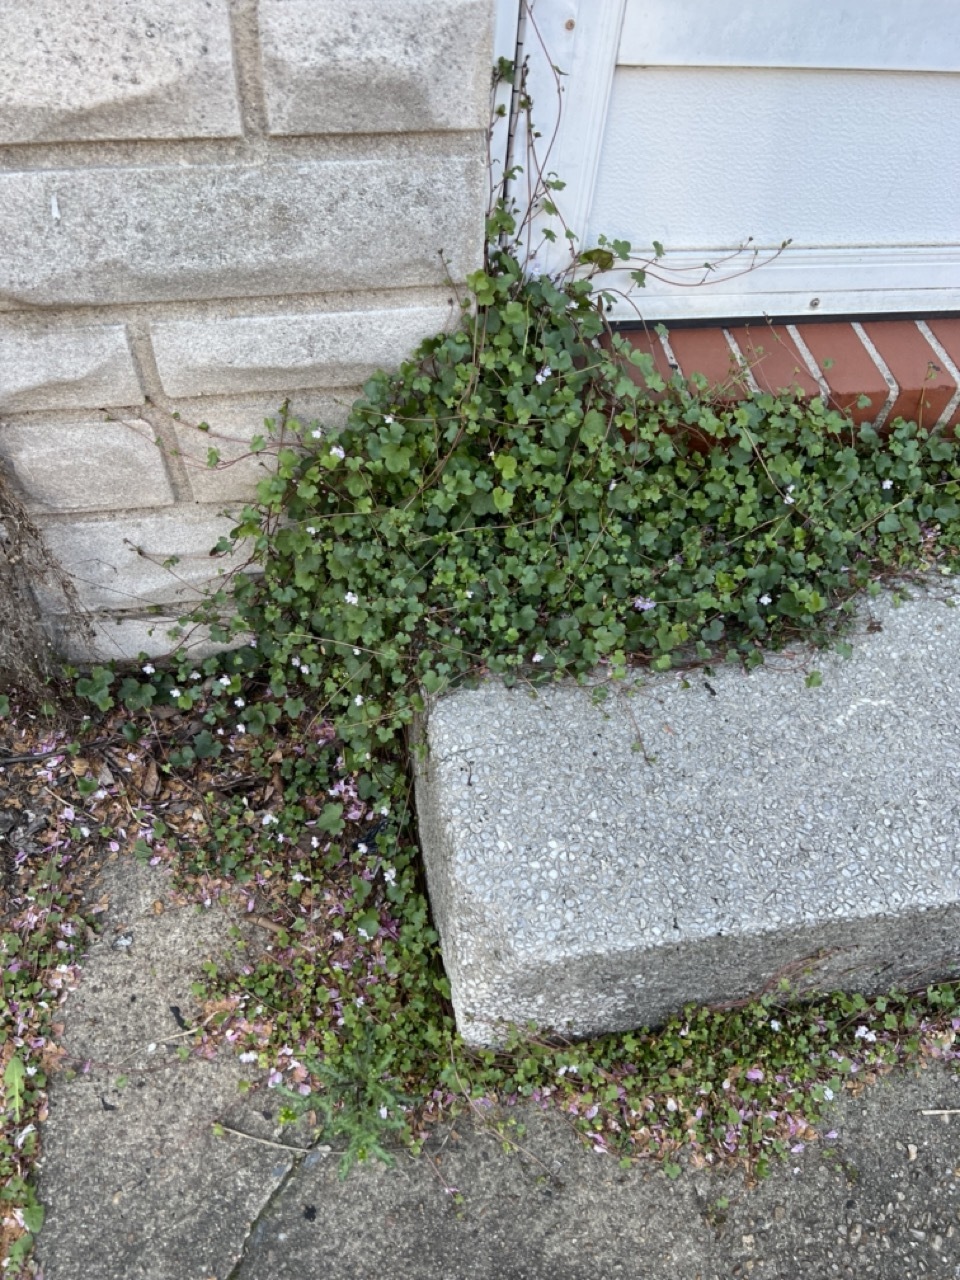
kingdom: Plantae
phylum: Tracheophyta
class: Magnoliopsida
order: Lamiales
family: Plantaginaceae
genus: Cymbalaria
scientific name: Cymbalaria muralis
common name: Ivy-leaved toadflax
